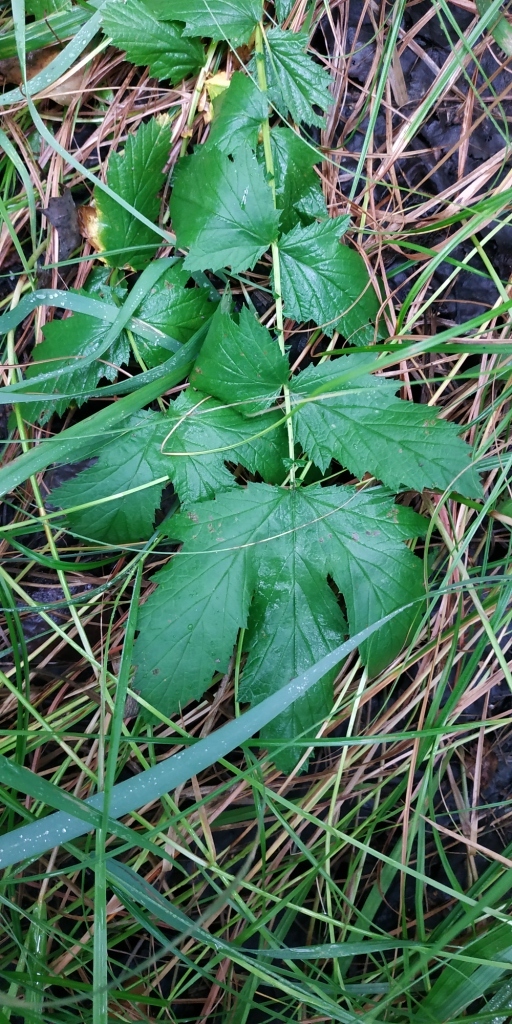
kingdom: Plantae
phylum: Tracheophyta
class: Magnoliopsida
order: Rosales
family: Rosaceae
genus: Filipendula
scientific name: Filipendula ulmaria
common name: Meadowsweet
